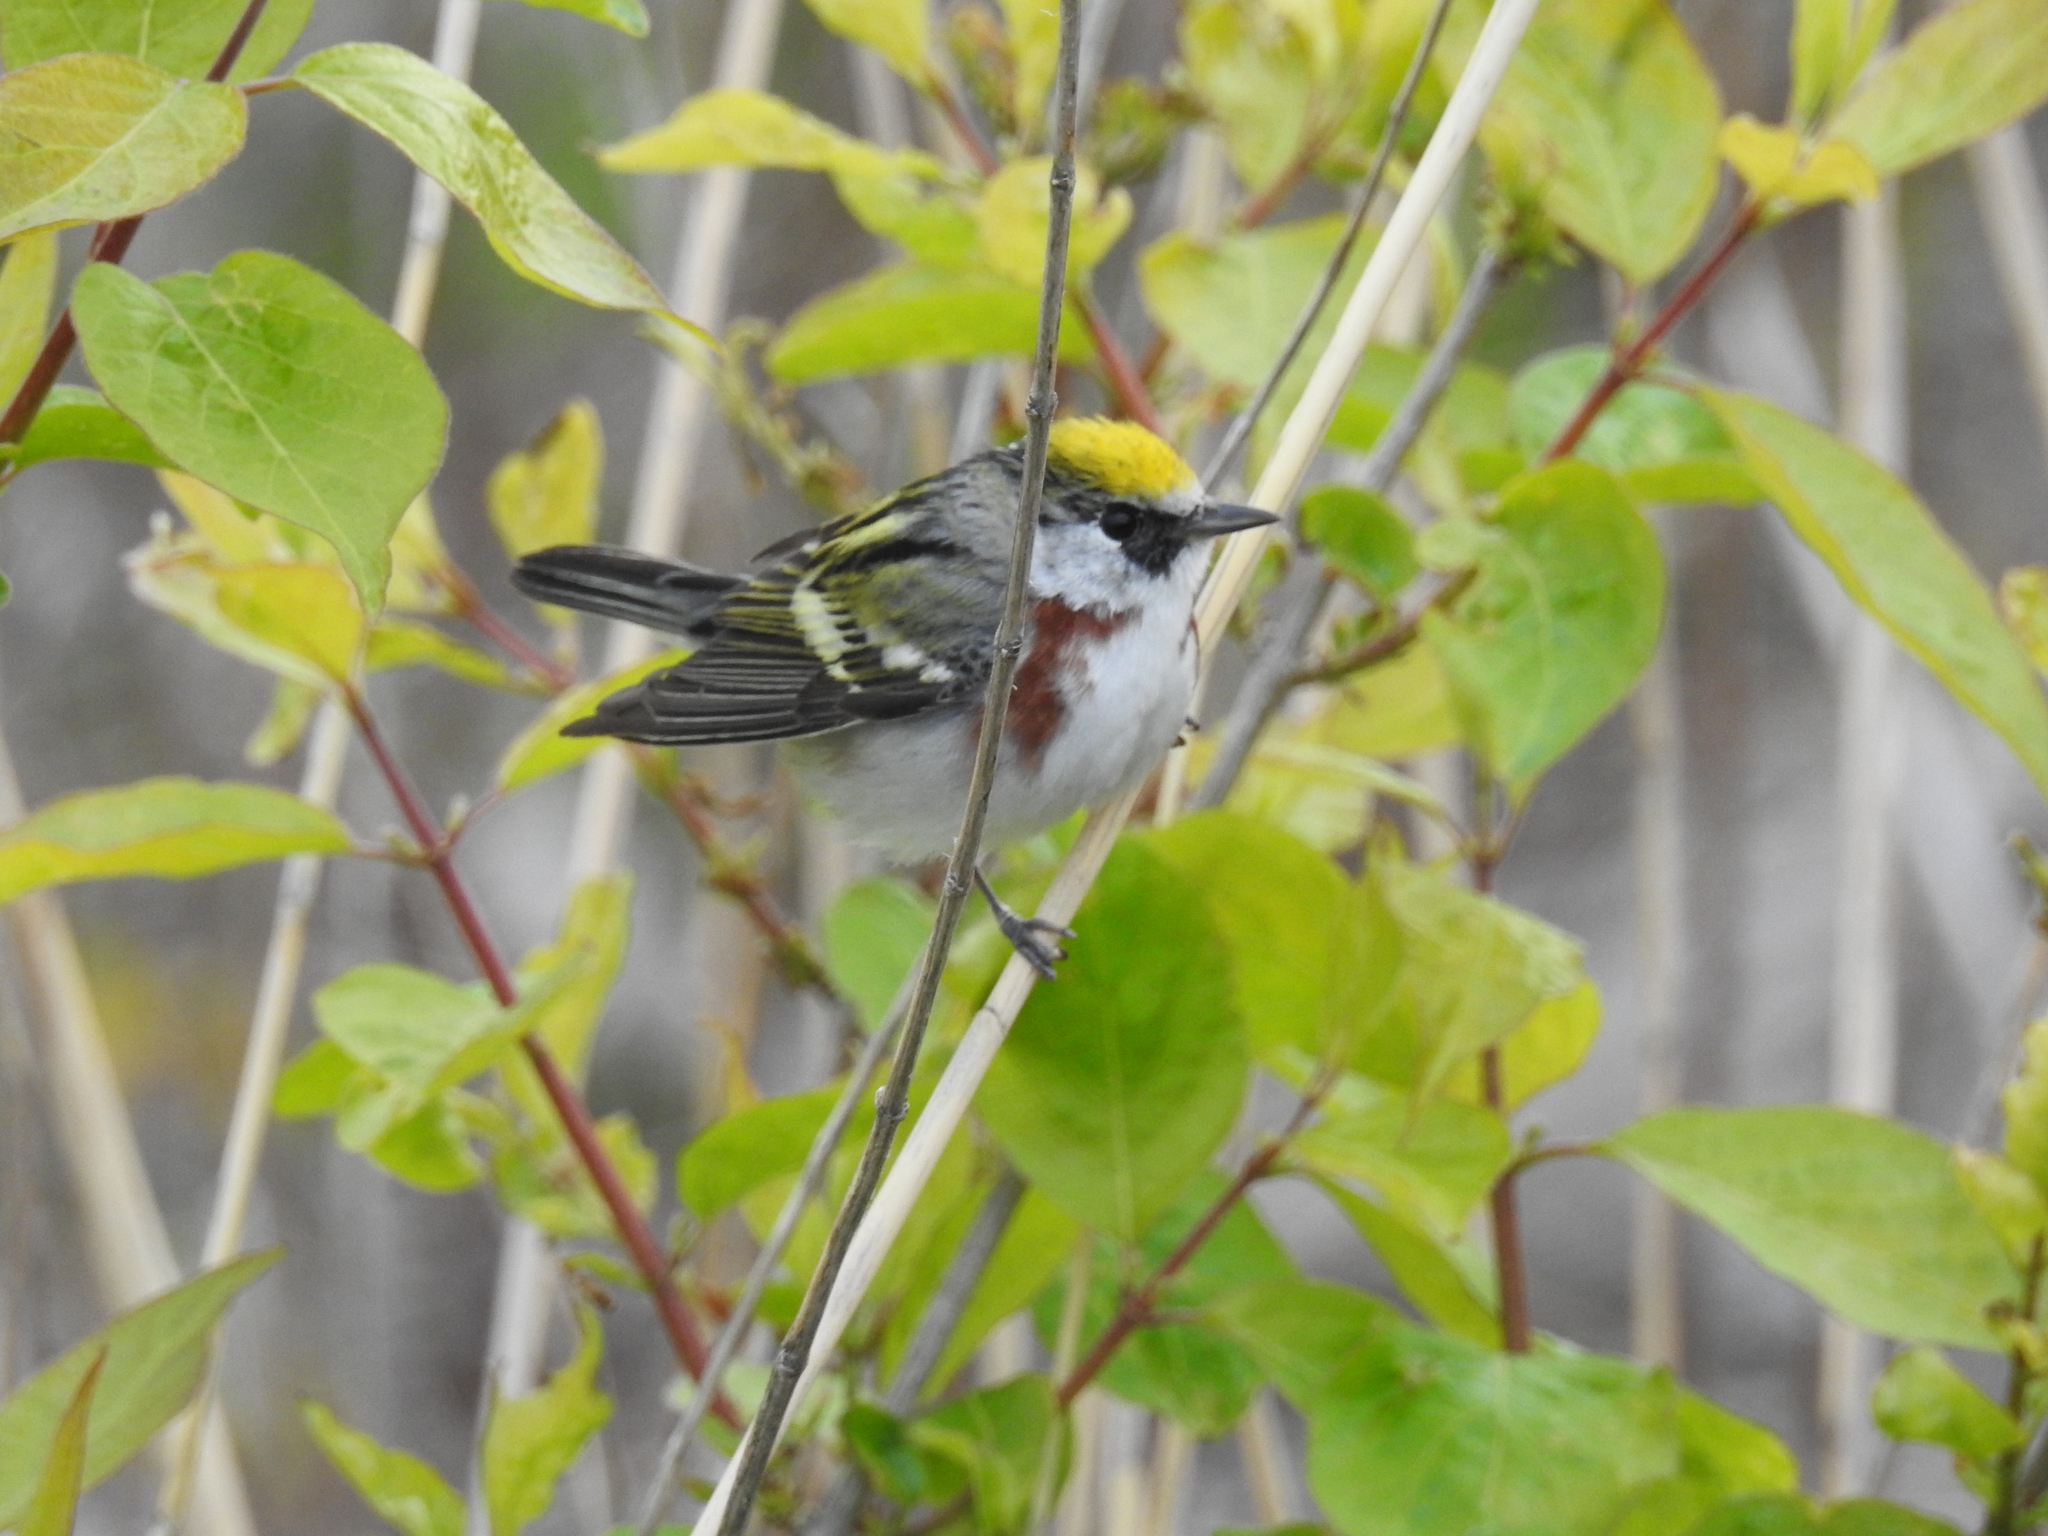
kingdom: Animalia
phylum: Chordata
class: Aves
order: Passeriformes
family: Parulidae
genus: Setophaga
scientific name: Setophaga pensylvanica
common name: Chestnut-sided warbler
